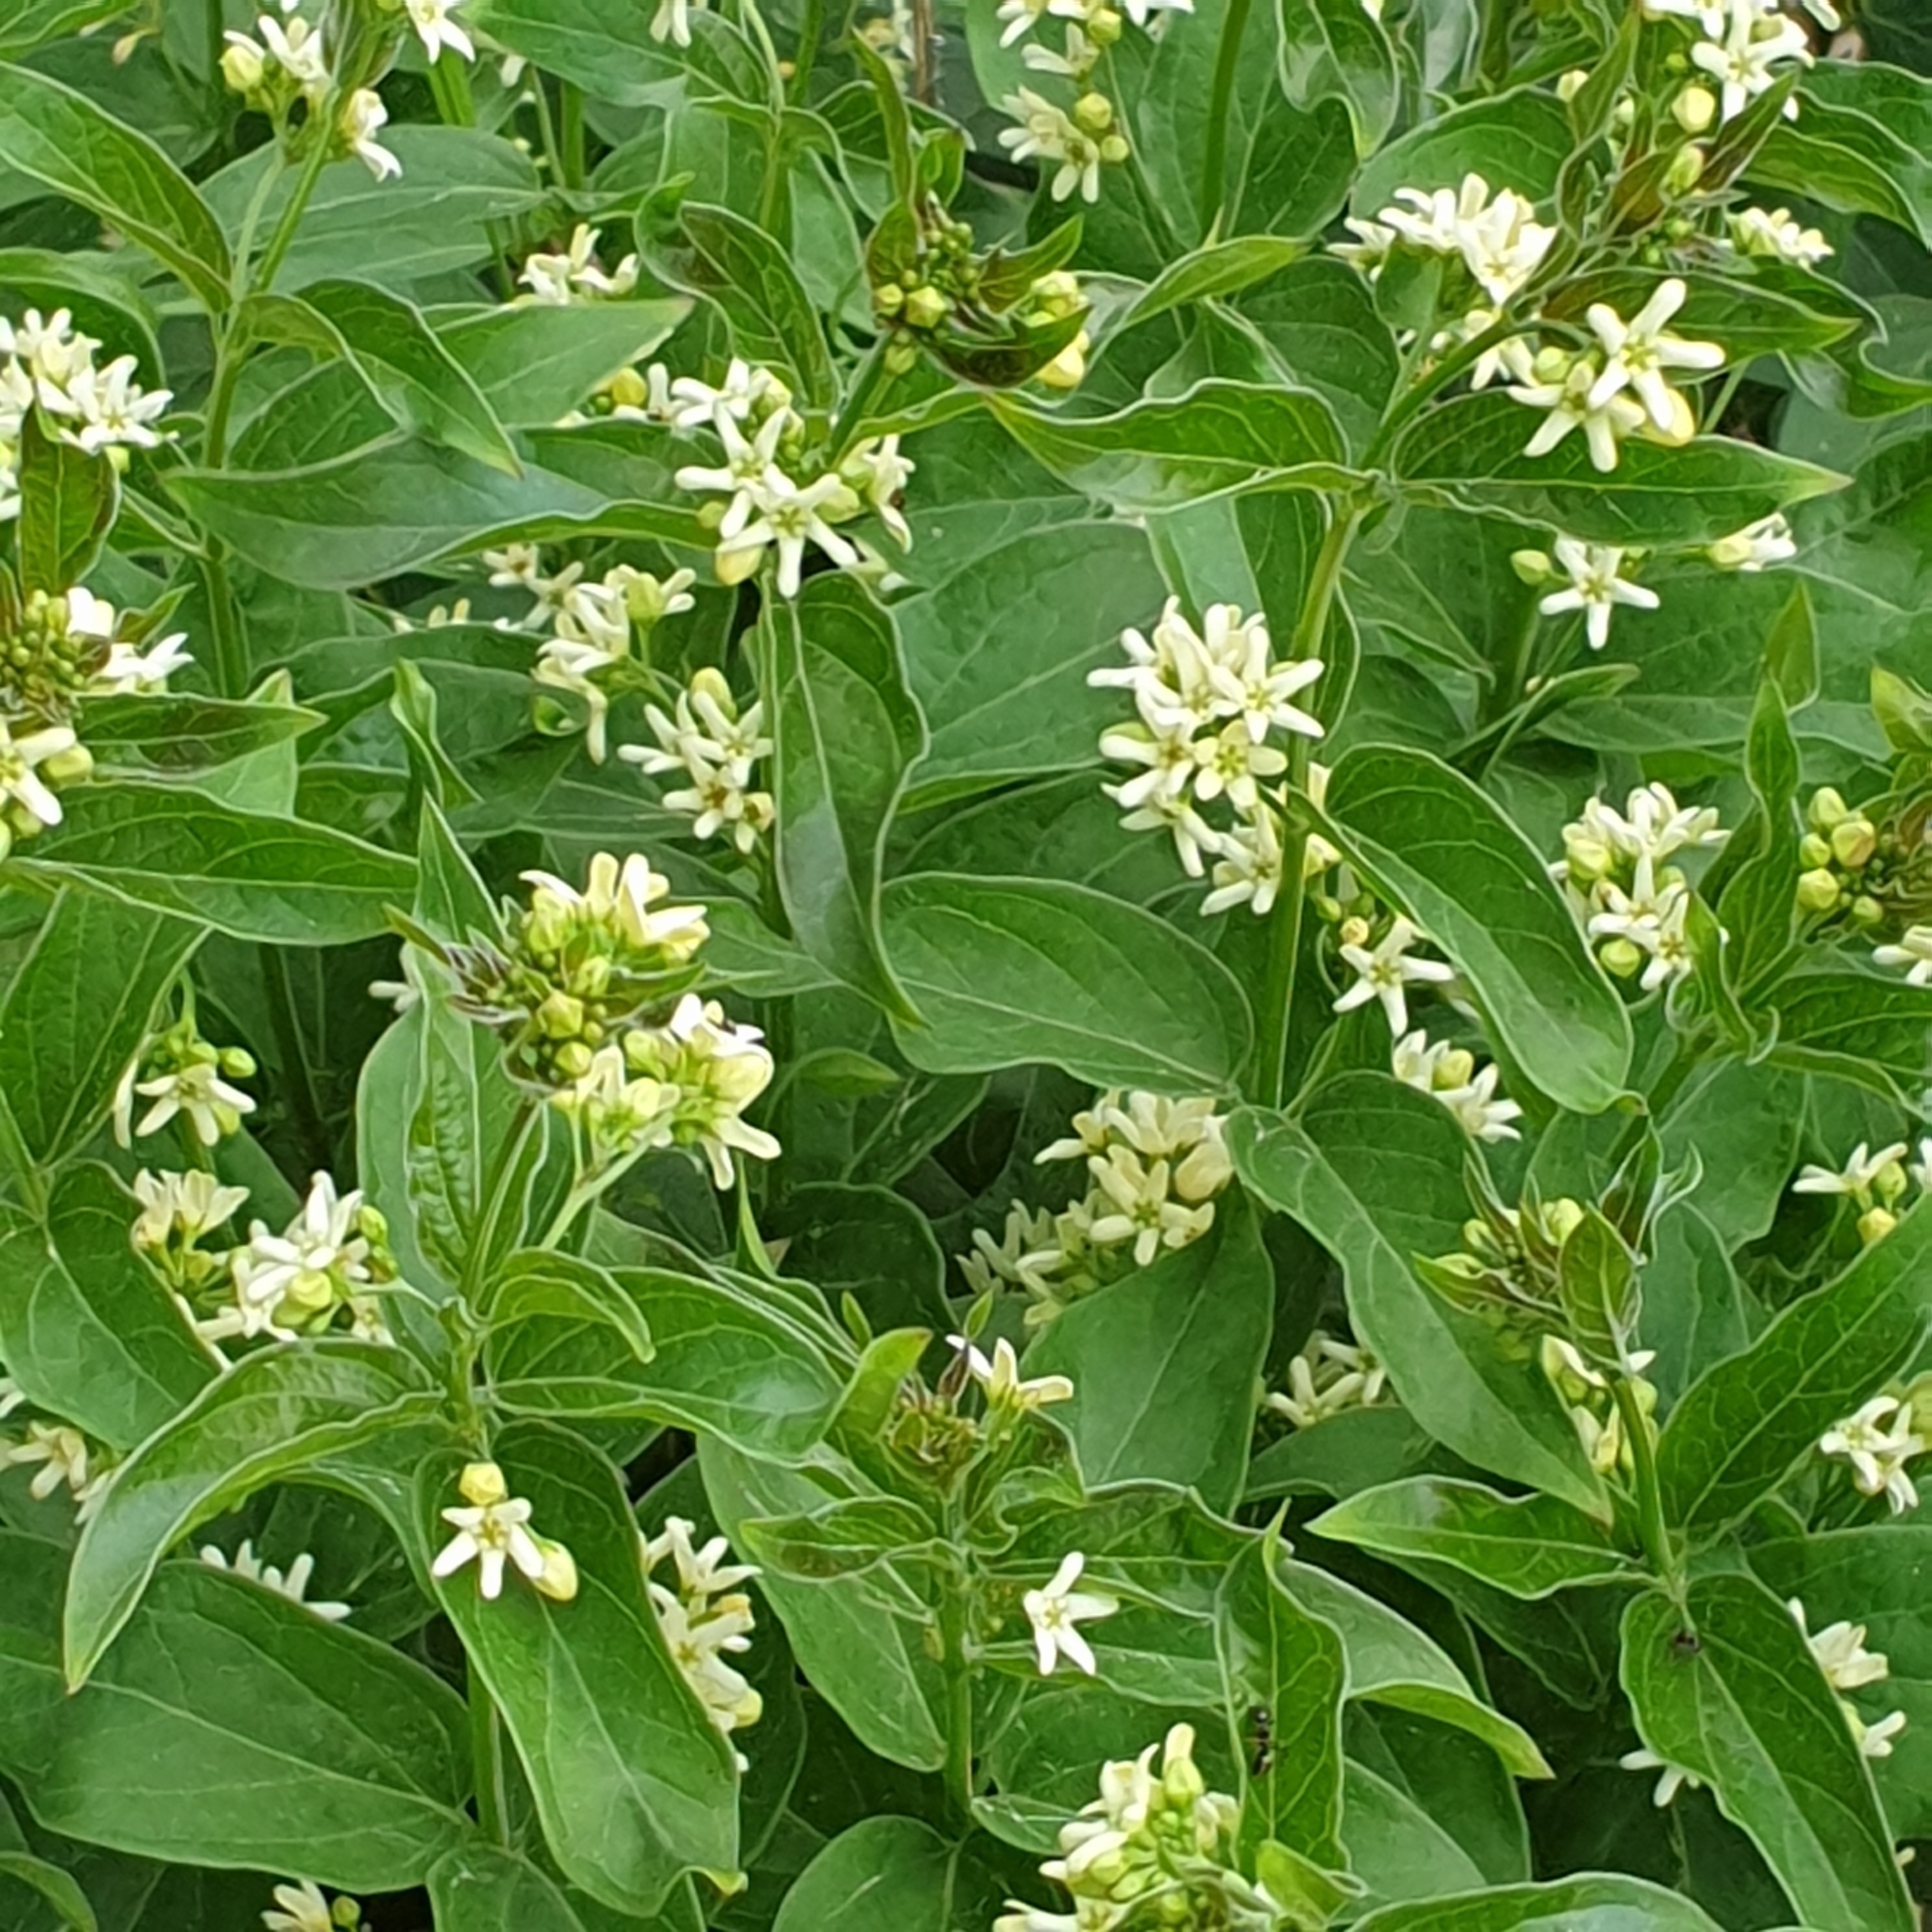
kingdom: Plantae
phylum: Tracheophyta
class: Magnoliopsida
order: Gentianales
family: Apocynaceae
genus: Vincetoxicum
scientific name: Vincetoxicum hirundinaria
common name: White swallowwort
